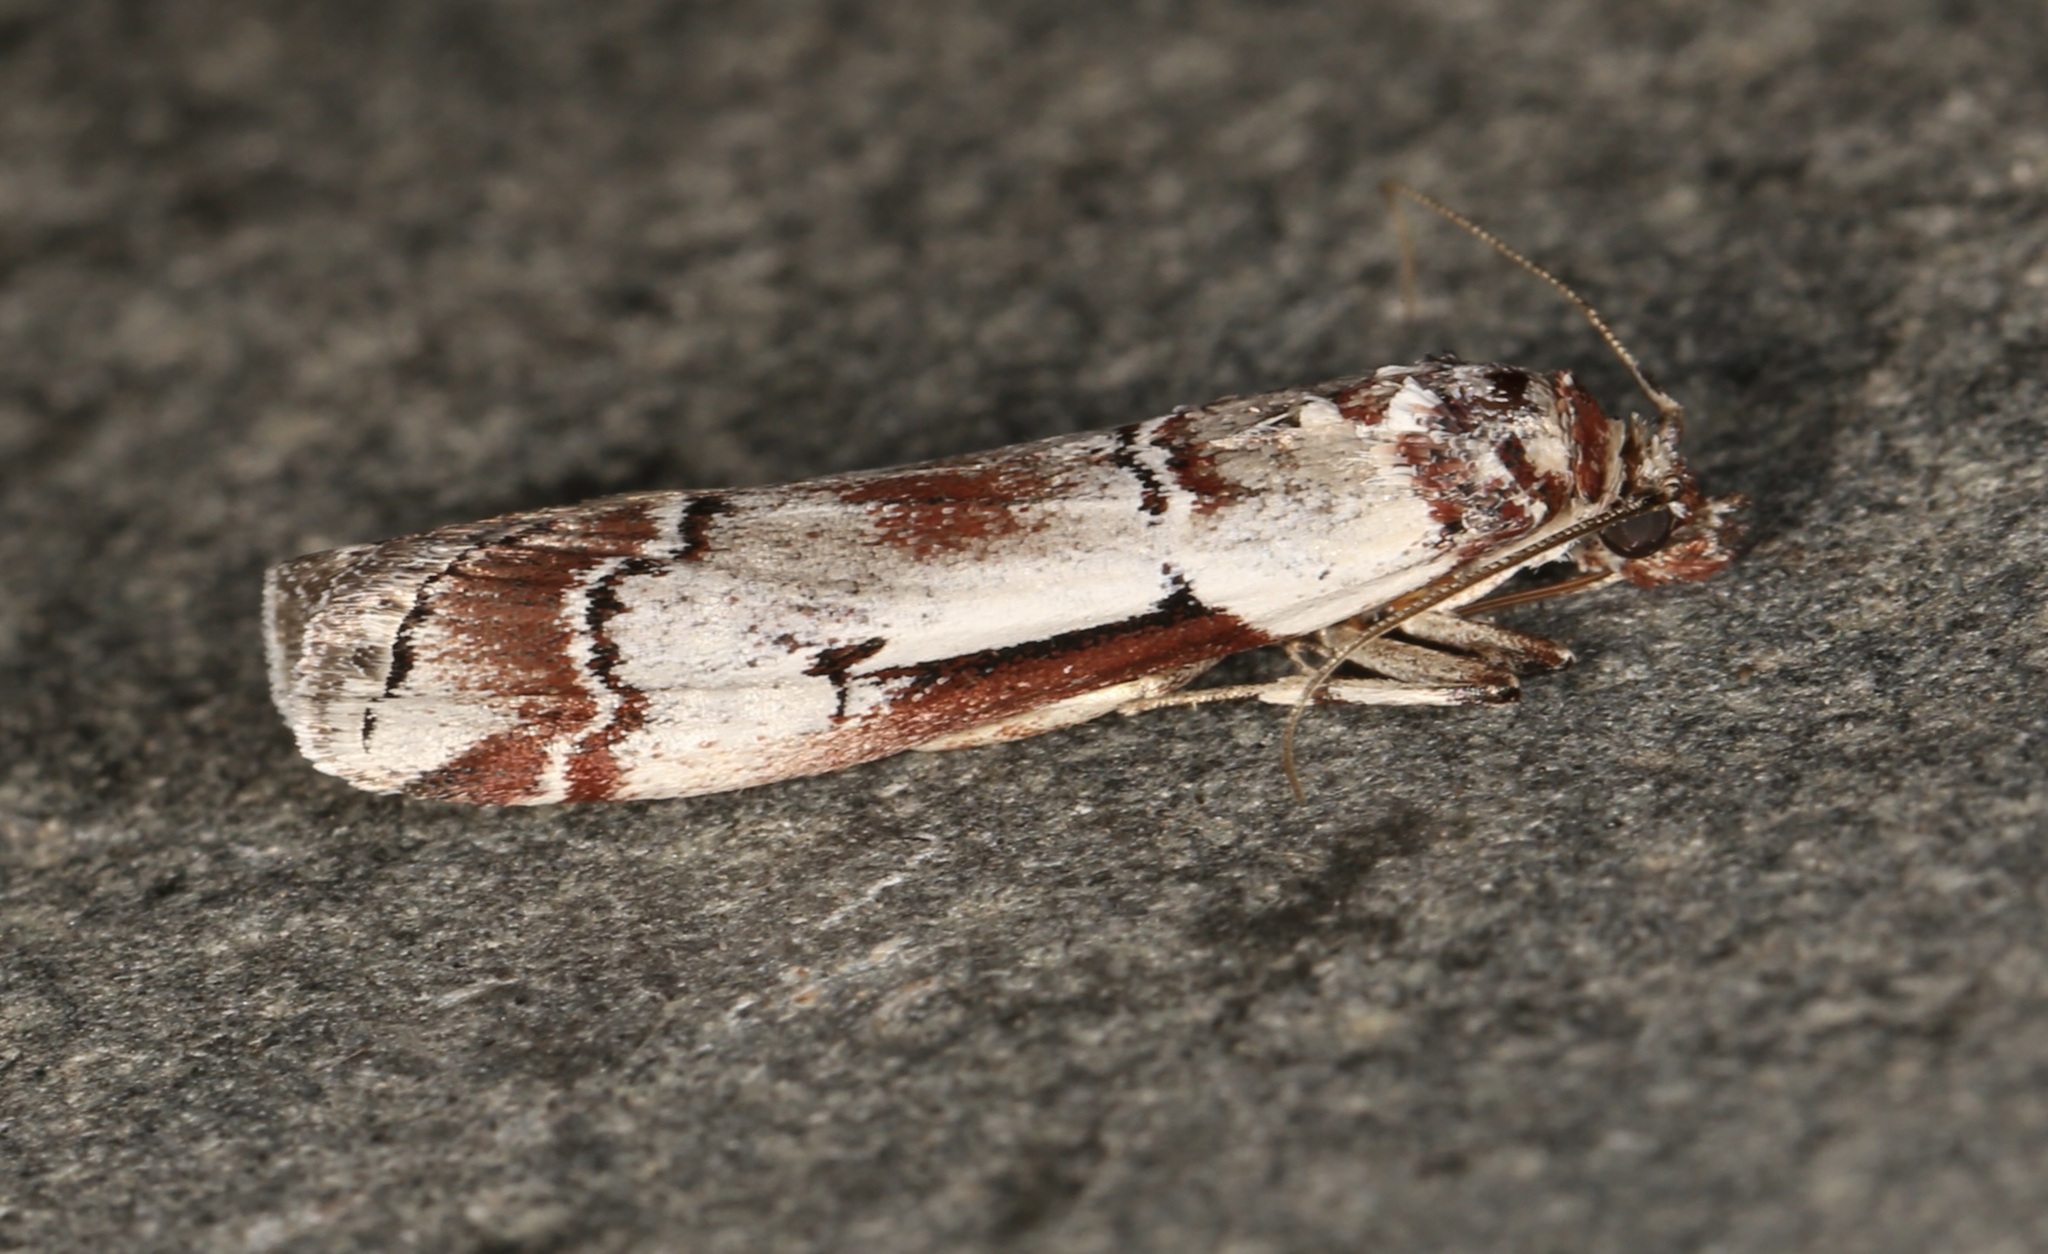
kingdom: Animalia
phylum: Arthropoda
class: Insecta
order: Lepidoptera
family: Pyralidae
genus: Ambesa
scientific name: Ambesa laetella
